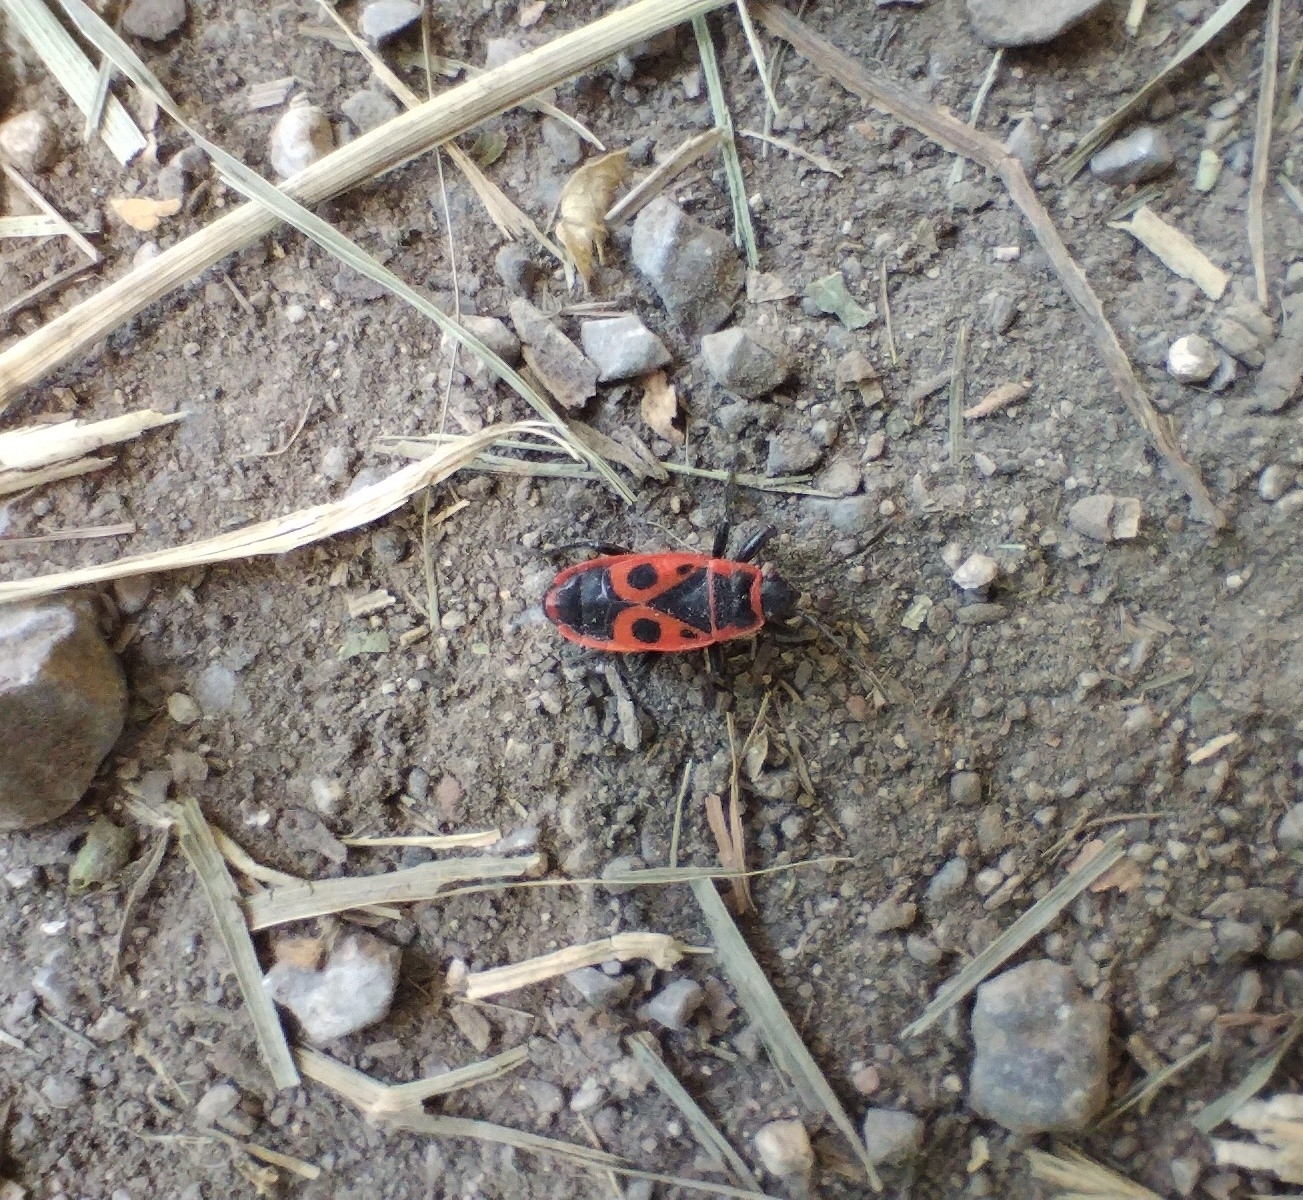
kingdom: Animalia
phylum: Arthropoda
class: Insecta
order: Hemiptera
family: Pyrrhocoridae
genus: Pyrrhocoris
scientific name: Pyrrhocoris apterus
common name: Firebug
